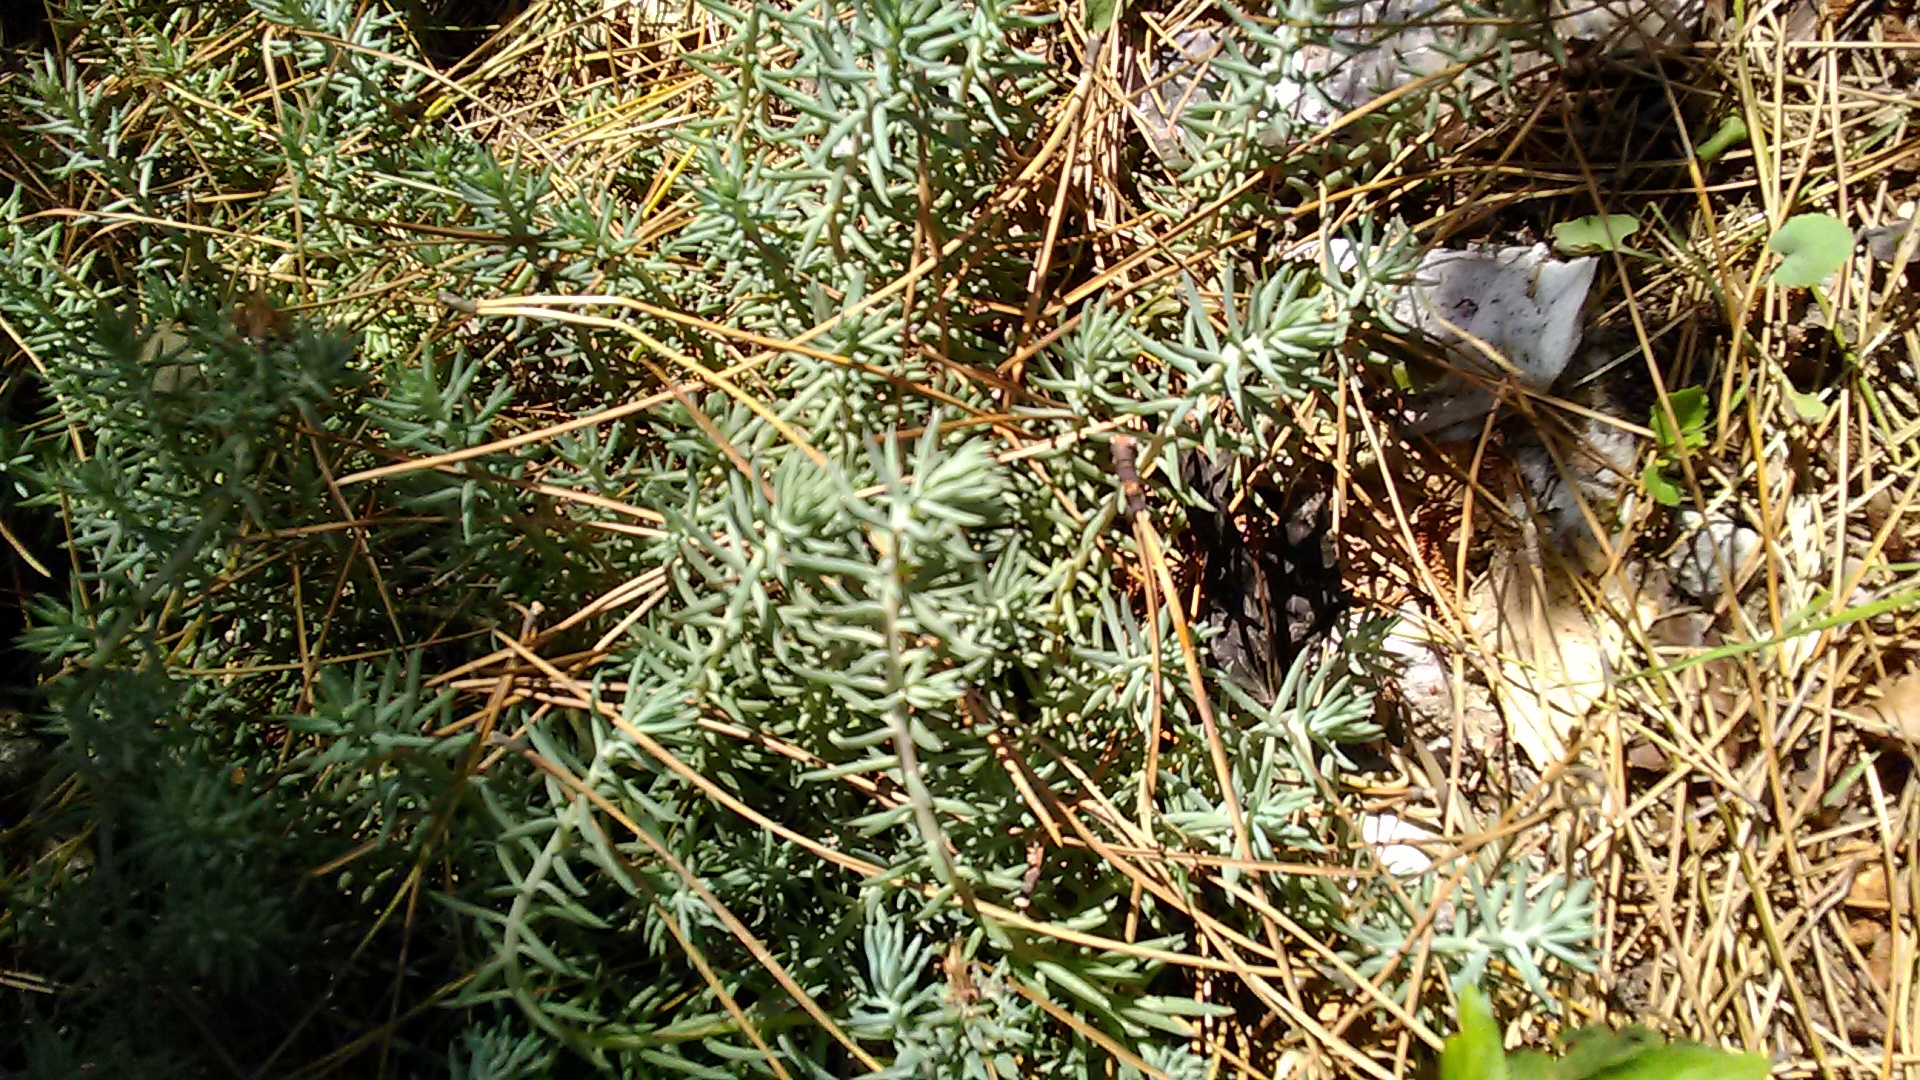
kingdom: Plantae
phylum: Tracheophyta
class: Magnoliopsida
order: Saxifragales
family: Crassulaceae
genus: Petrosedum
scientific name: Petrosedum rupestre
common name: Jenny's stonecrop
